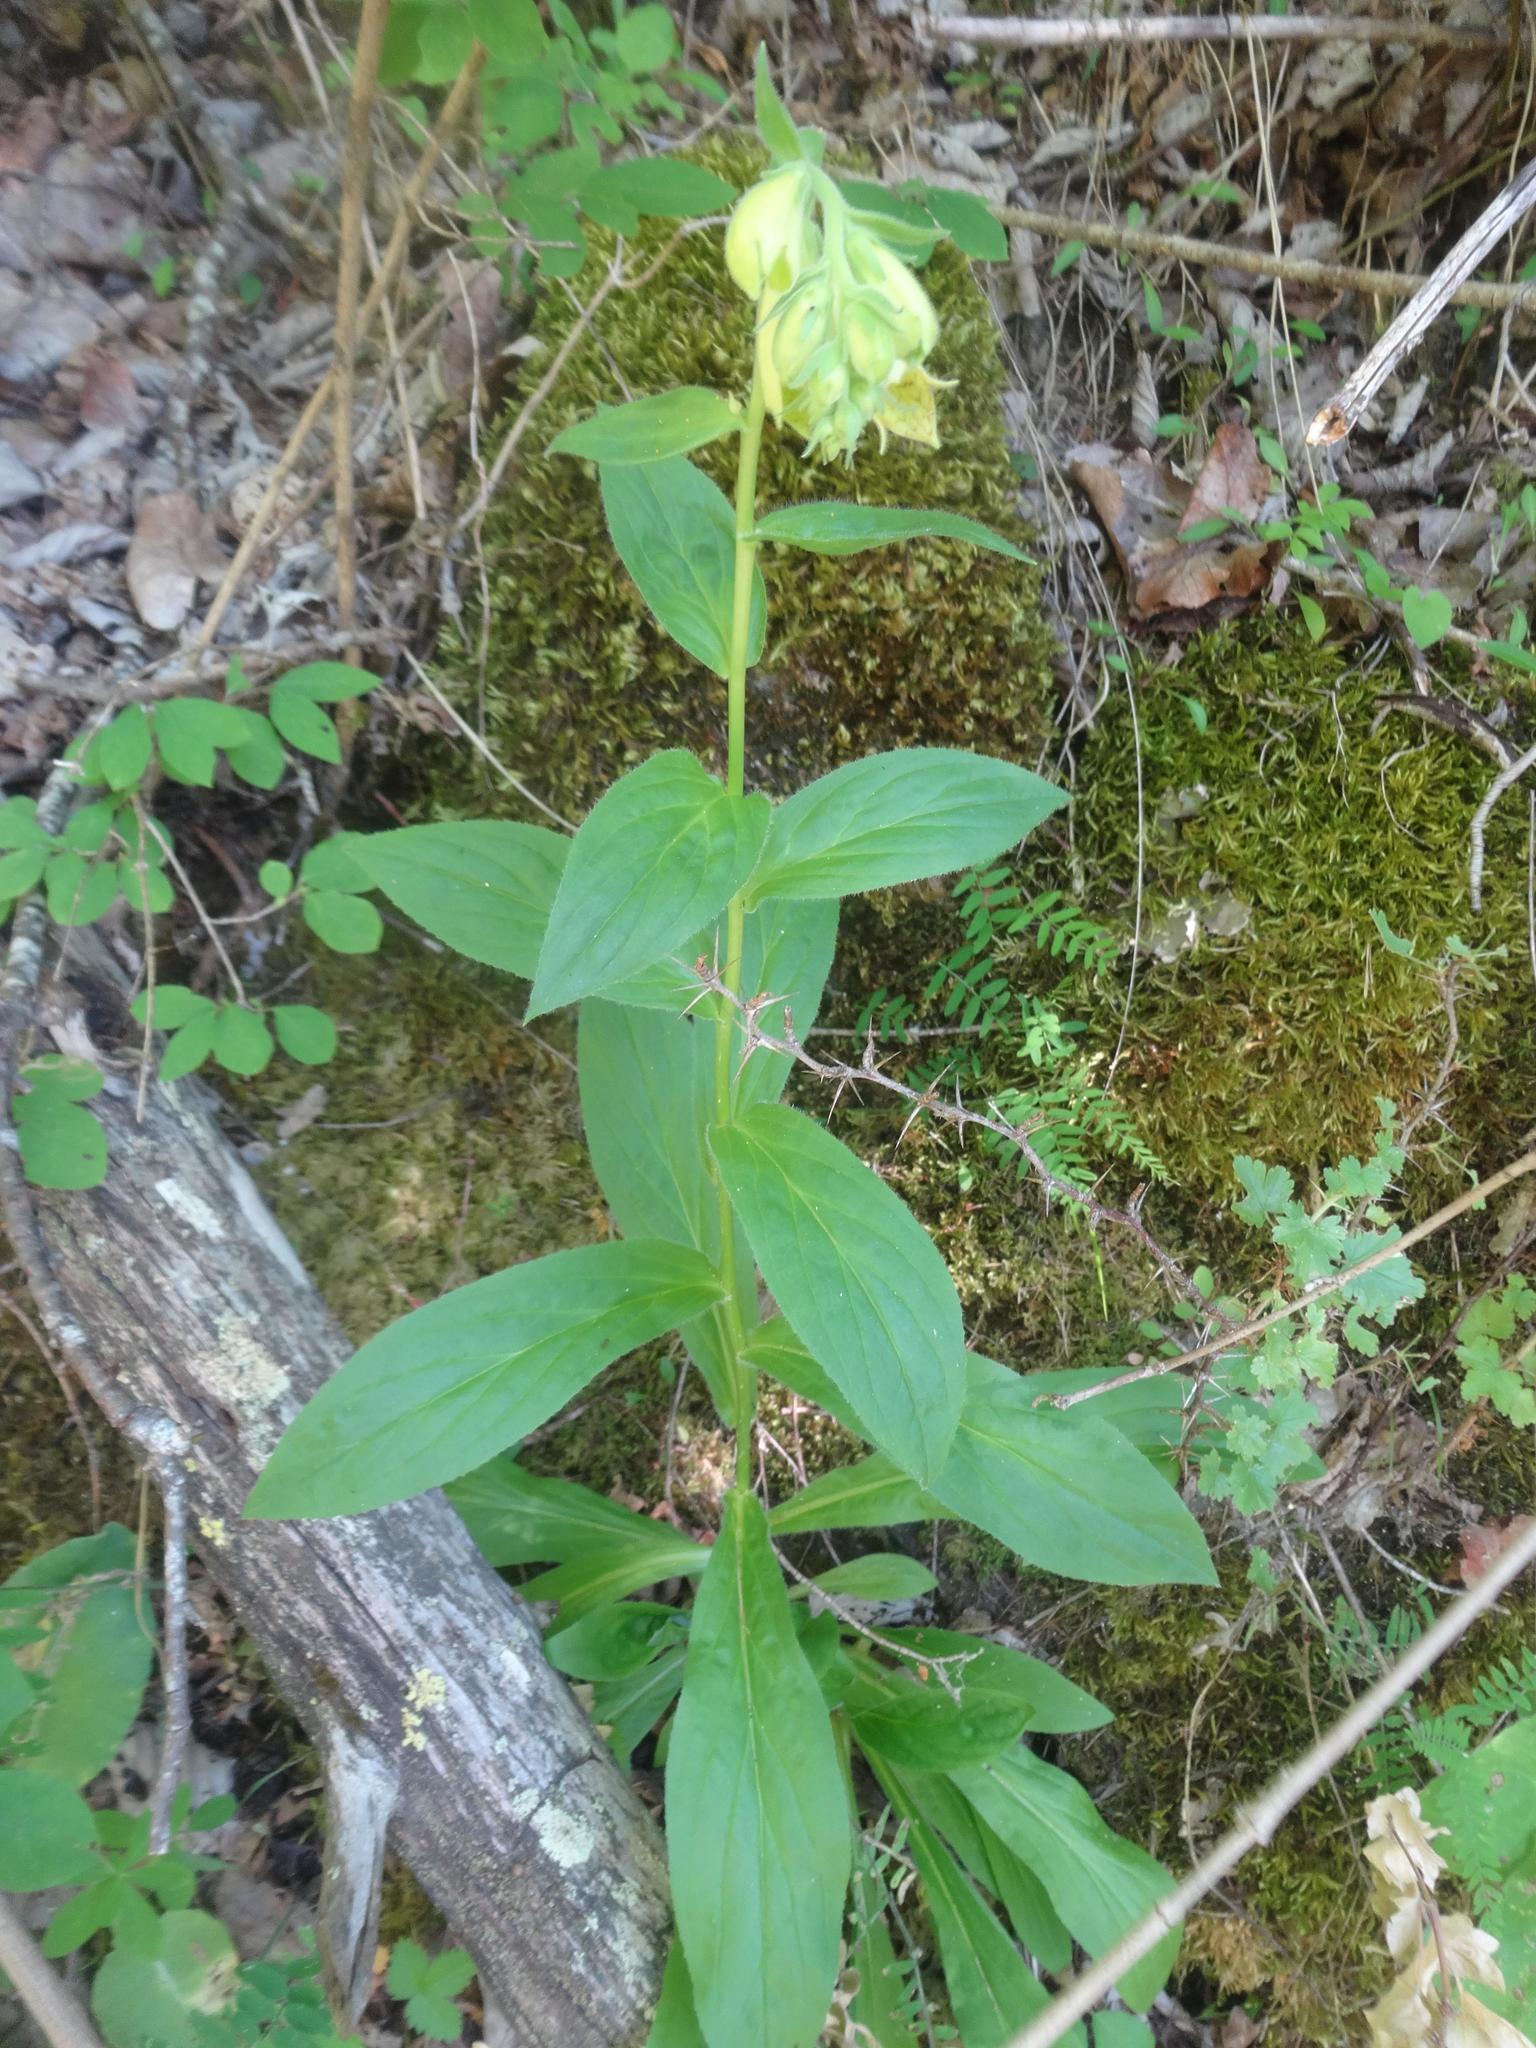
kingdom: Plantae
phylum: Tracheophyta
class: Magnoliopsida
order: Lamiales
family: Plantaginaceae
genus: Digitalis
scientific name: Digitalis grandiflora
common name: Yellow foxglove
